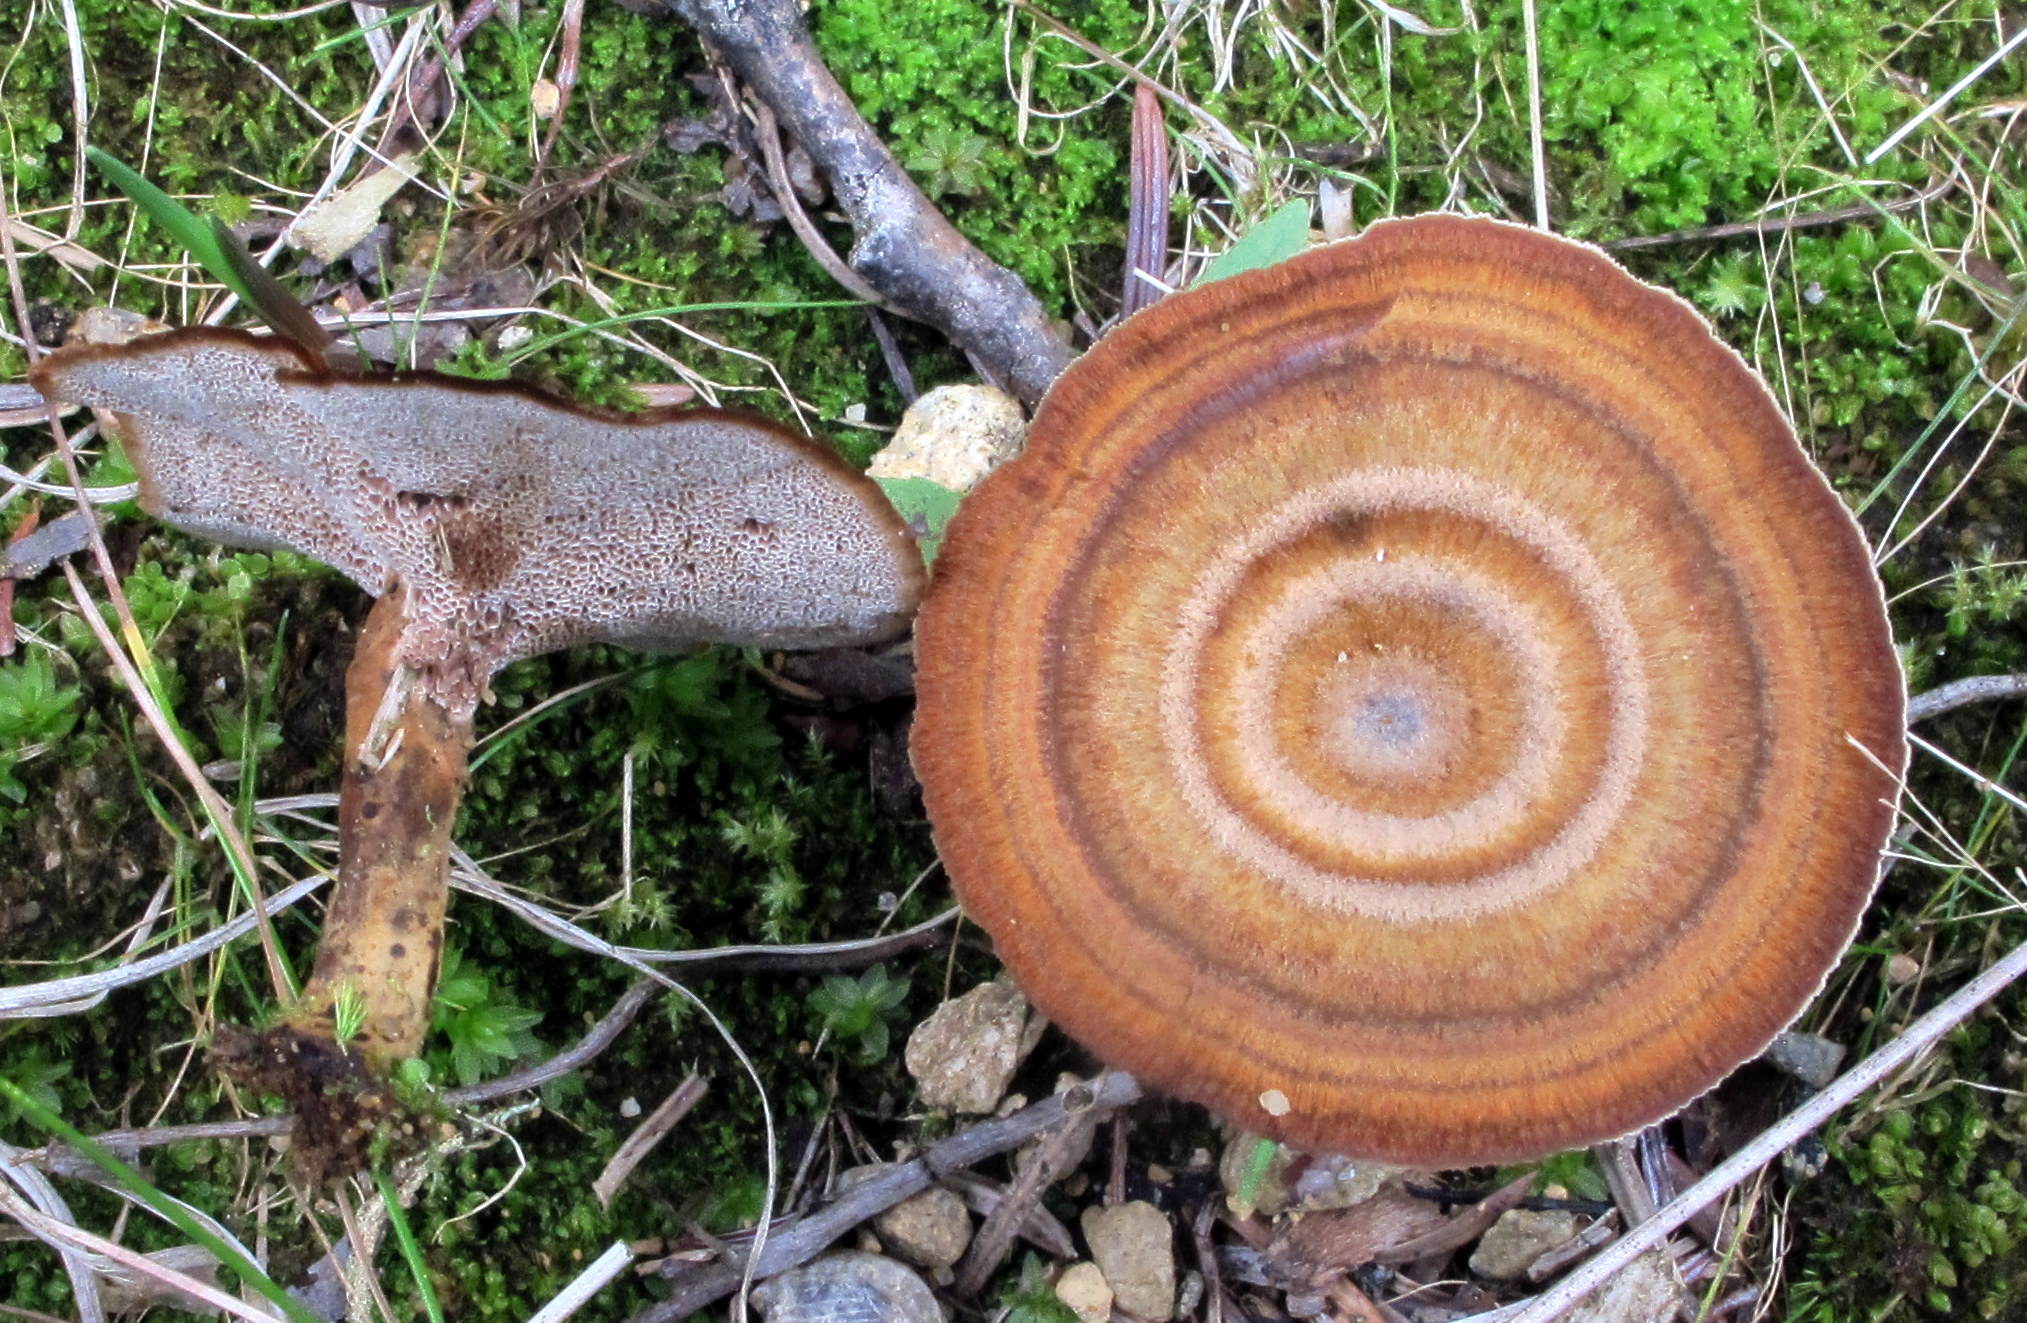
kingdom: Fungi
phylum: Basidiomycota
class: Agaricomycetes
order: Hymenochaetales
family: Hymenochaetaceae
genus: Coltricia
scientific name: Coltricia perennis
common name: Tiger's eye
